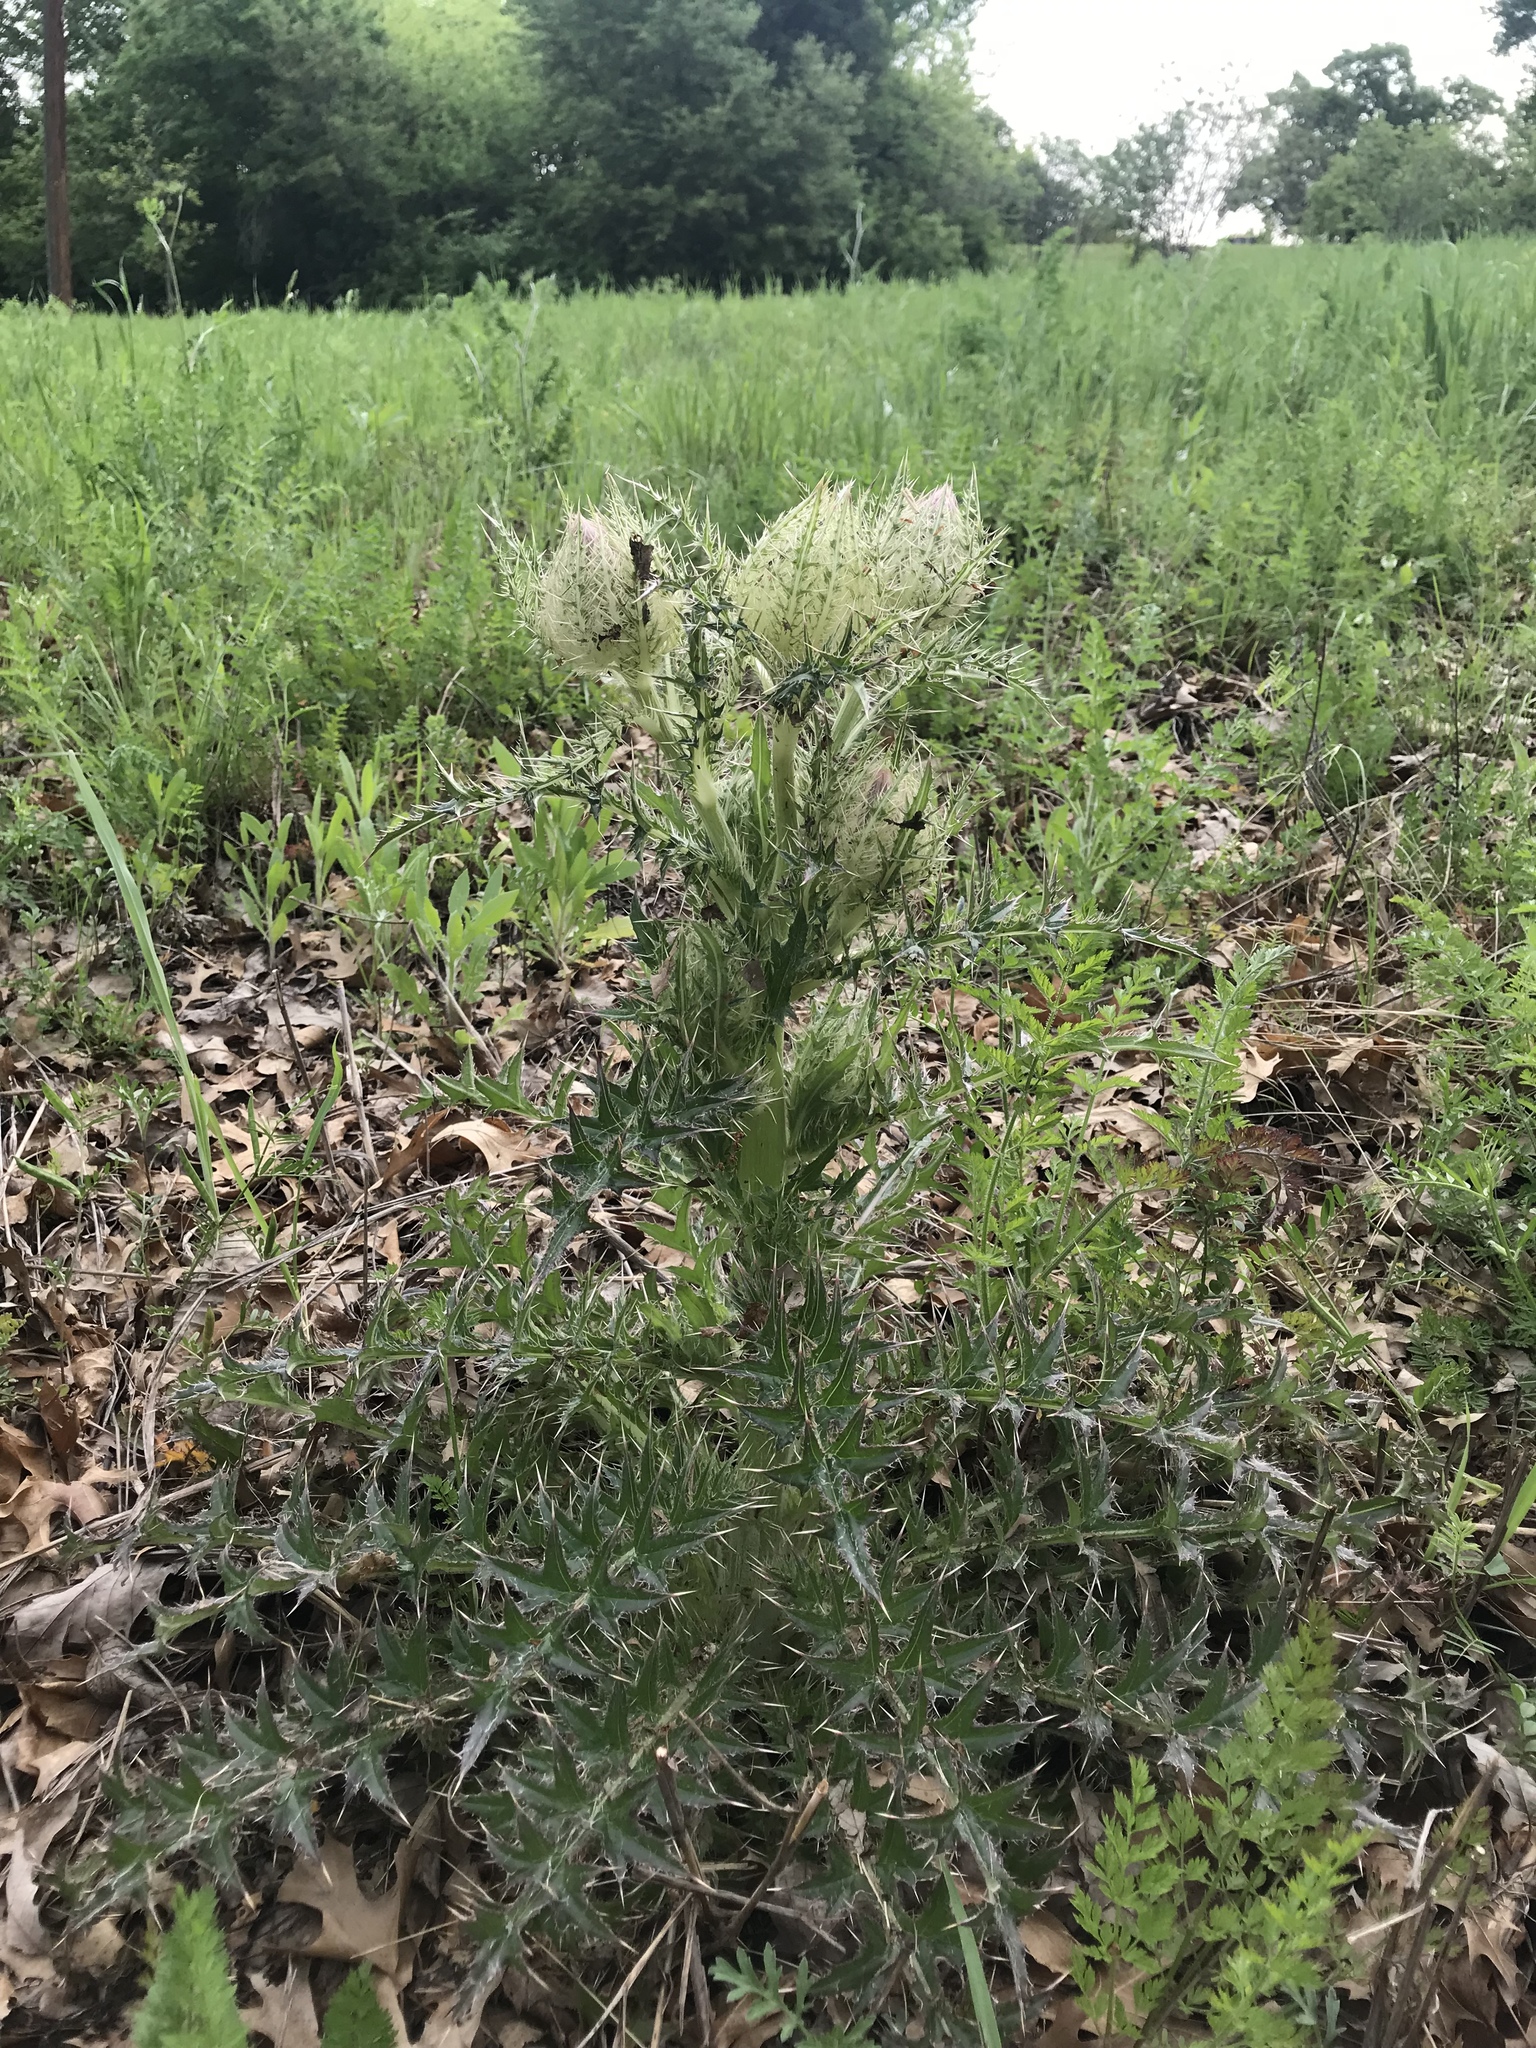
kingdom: Plantae
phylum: Tracheophyta
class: Magnoliopsida
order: Asterales
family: Asteraceae
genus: Cirsium
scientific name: Cirsium horridulum
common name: Bristly thistle
